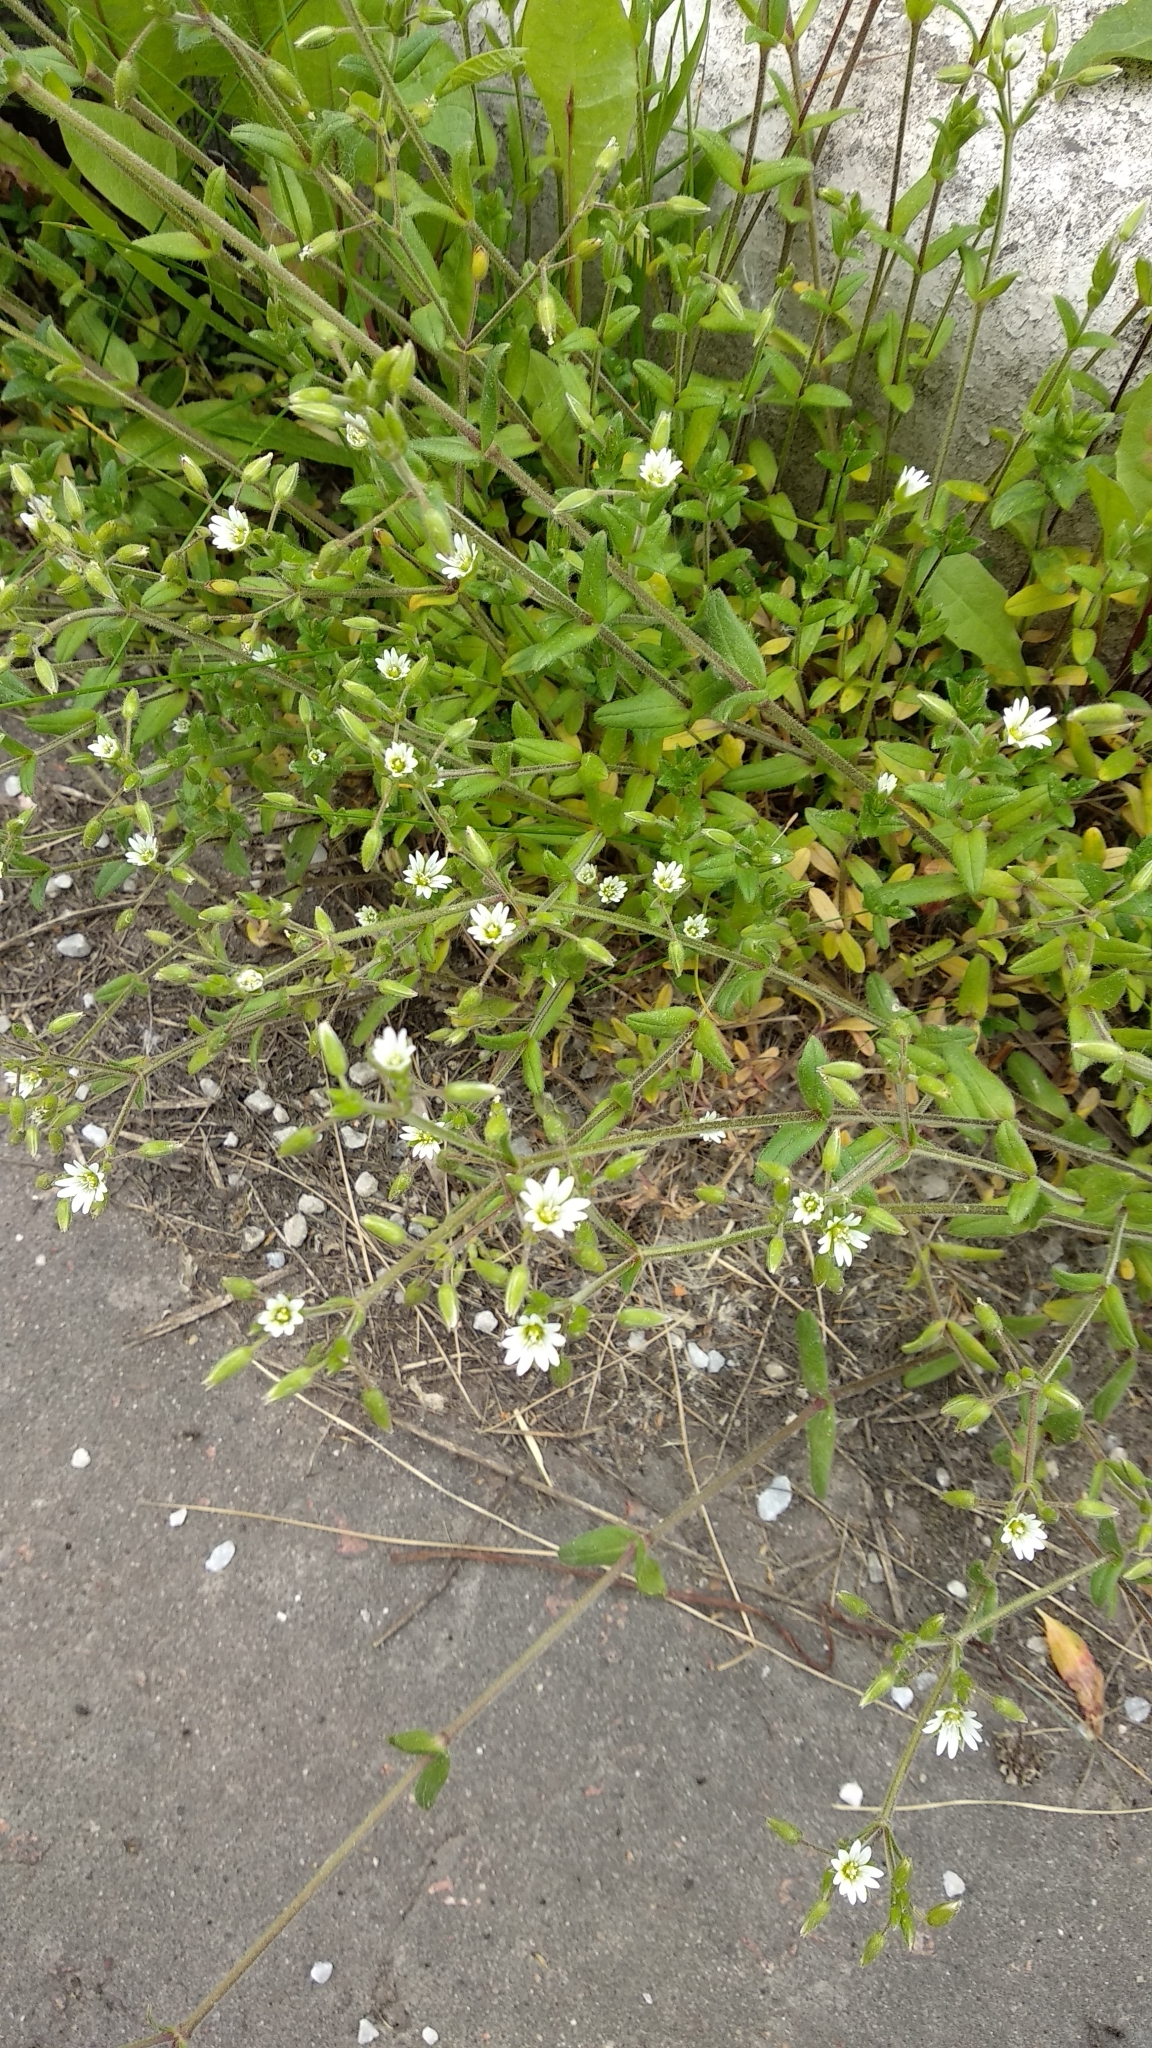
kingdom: Plantae
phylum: Tracheophyta
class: Magnoliopsida
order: Caryophyllales
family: Caryophyllaceae
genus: Cerastium
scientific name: Cerastium holosteoides
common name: Big chickweed
